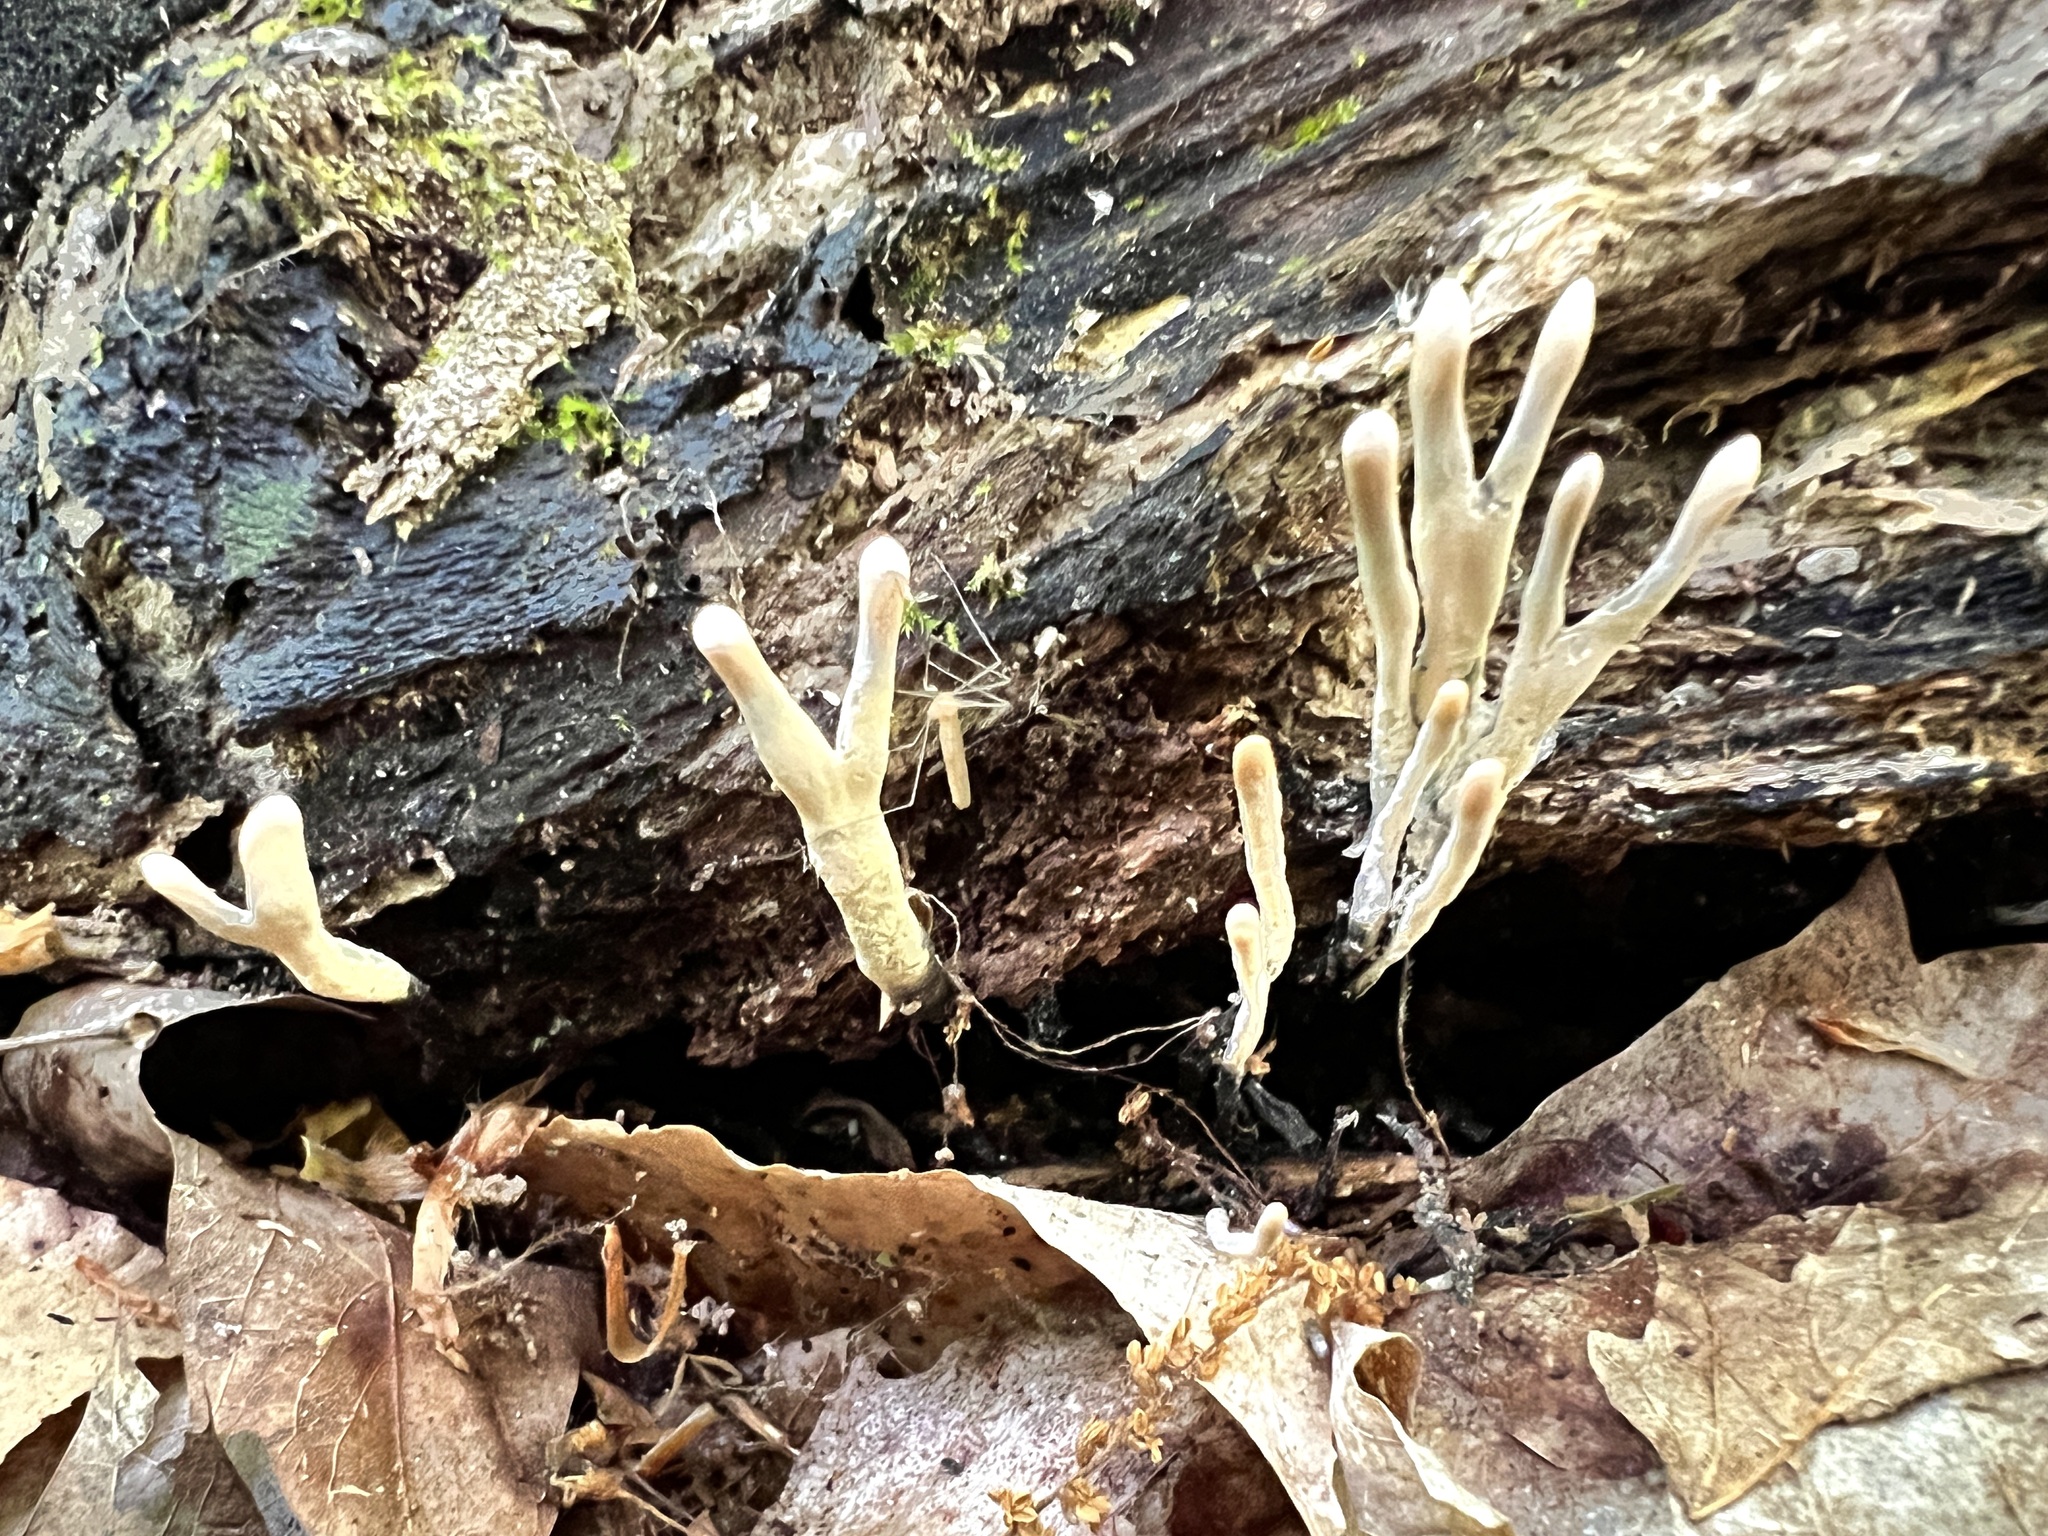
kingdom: Fungi
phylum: Ascomycota
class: Sordariomycetes
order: Xylariales
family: Xylariaceae
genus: Xylaria
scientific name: Xylaria hypoxylon
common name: Candle-snuff fungus
